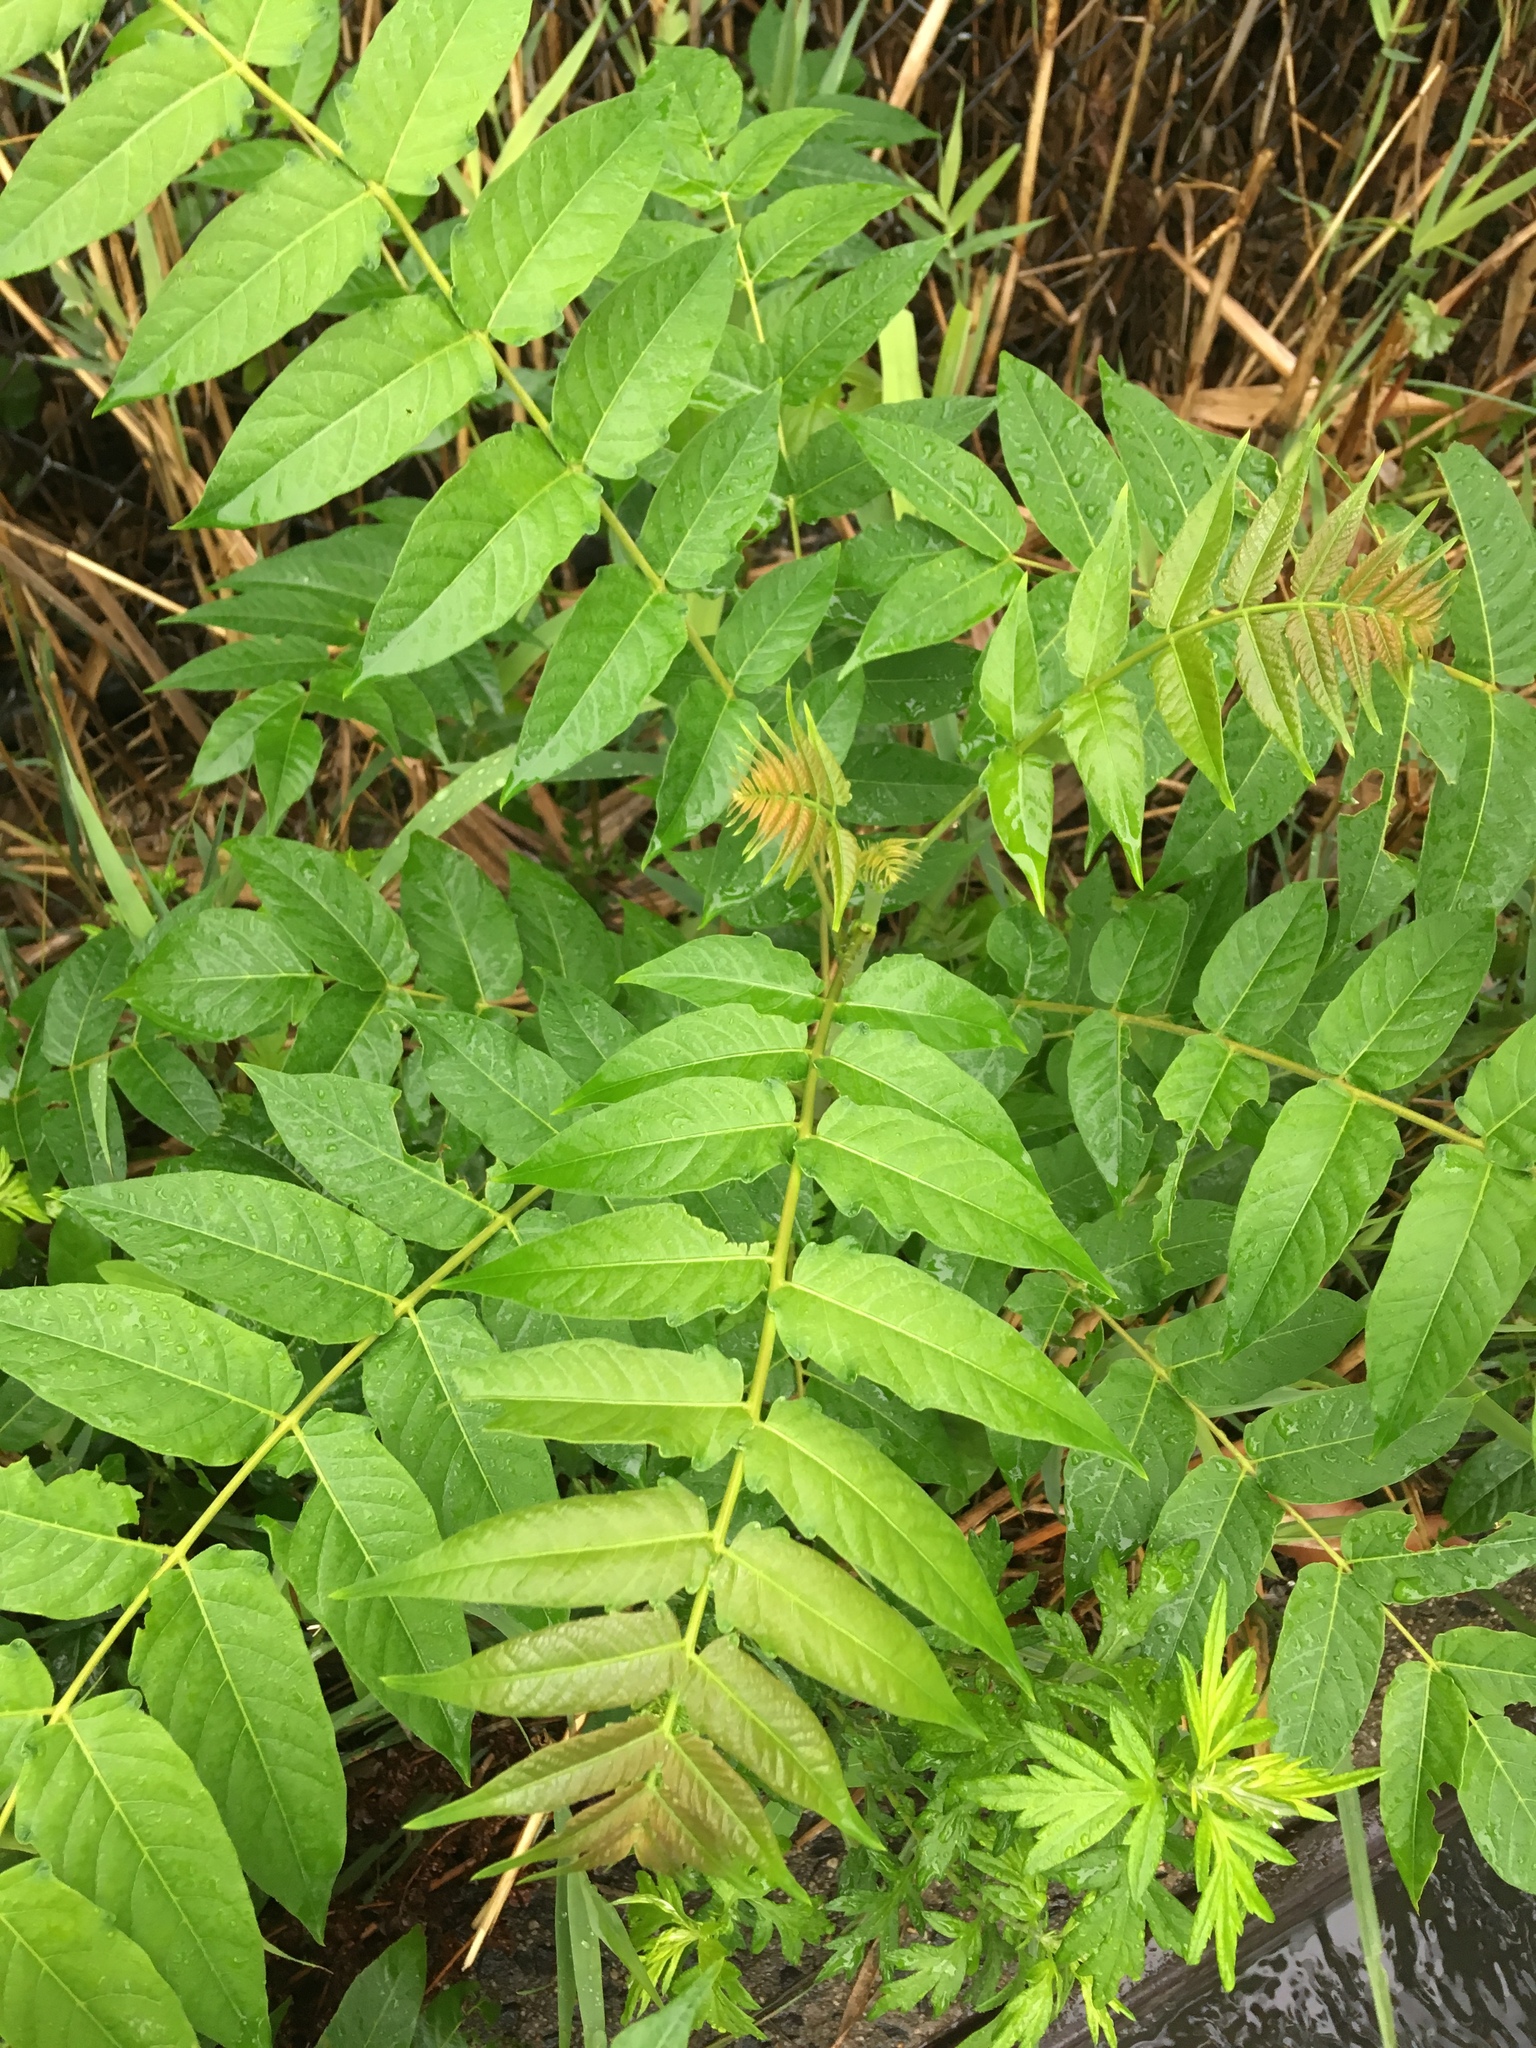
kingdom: Plantae
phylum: Tracheophyta
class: Magnoliopsida
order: Sapindales
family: Simaroubaceae
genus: Ailanthus
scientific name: Ailanthus altissima
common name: Tree-of-heaven
